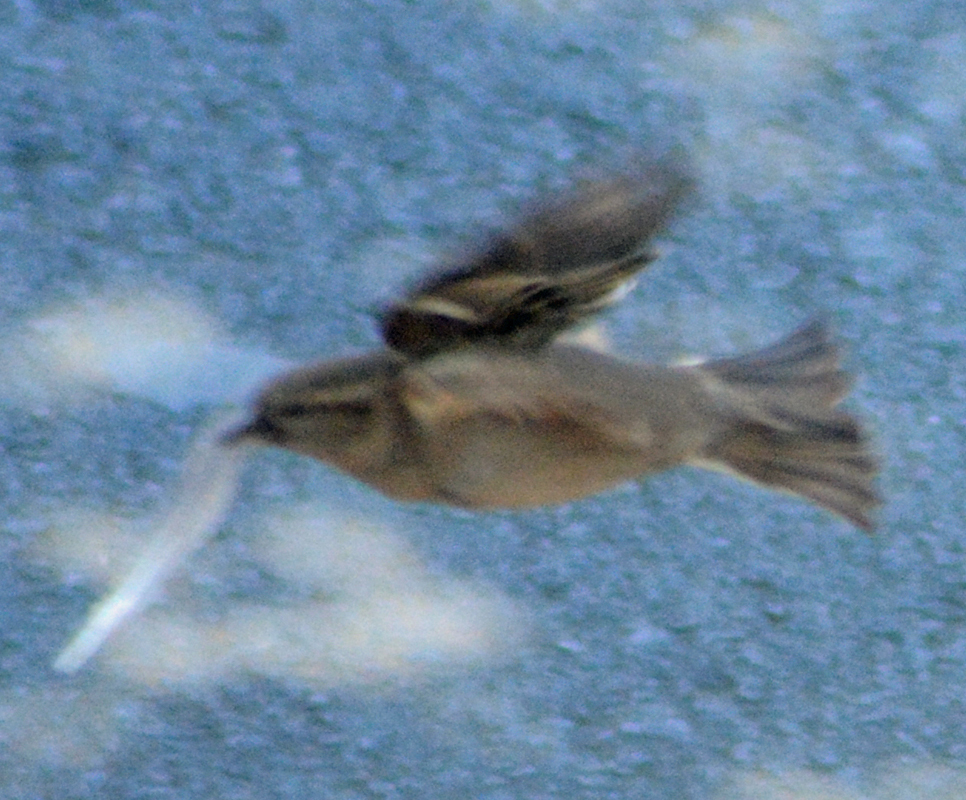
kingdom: Animalia
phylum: Chordata
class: Aves
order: Passeriformes
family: Passeridae
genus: Passer
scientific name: Passer domesticus
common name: House sparrow
